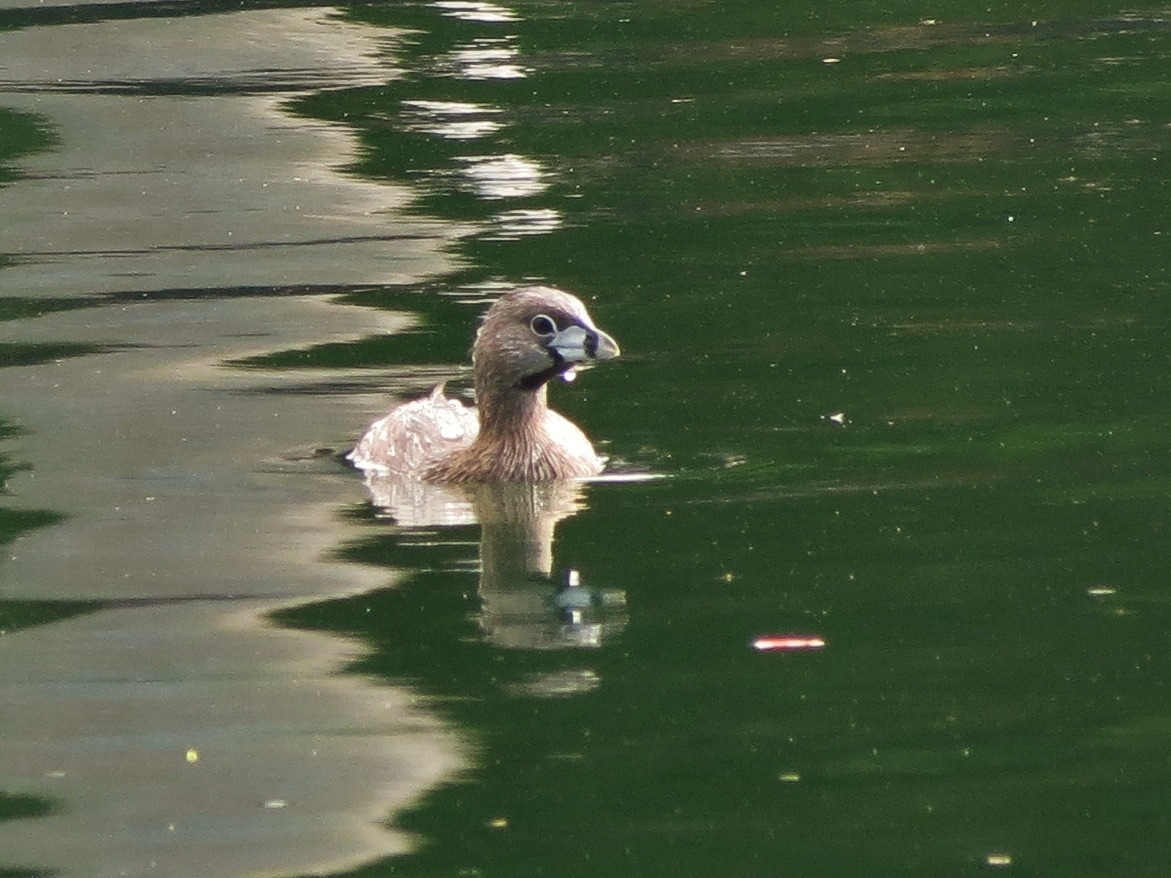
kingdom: Animalia
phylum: Chordata
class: Aves
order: Podicipediformes
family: Podicipedidae
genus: Podilymbus
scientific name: Podilymbus podiceps
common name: Pied-billed grebe
